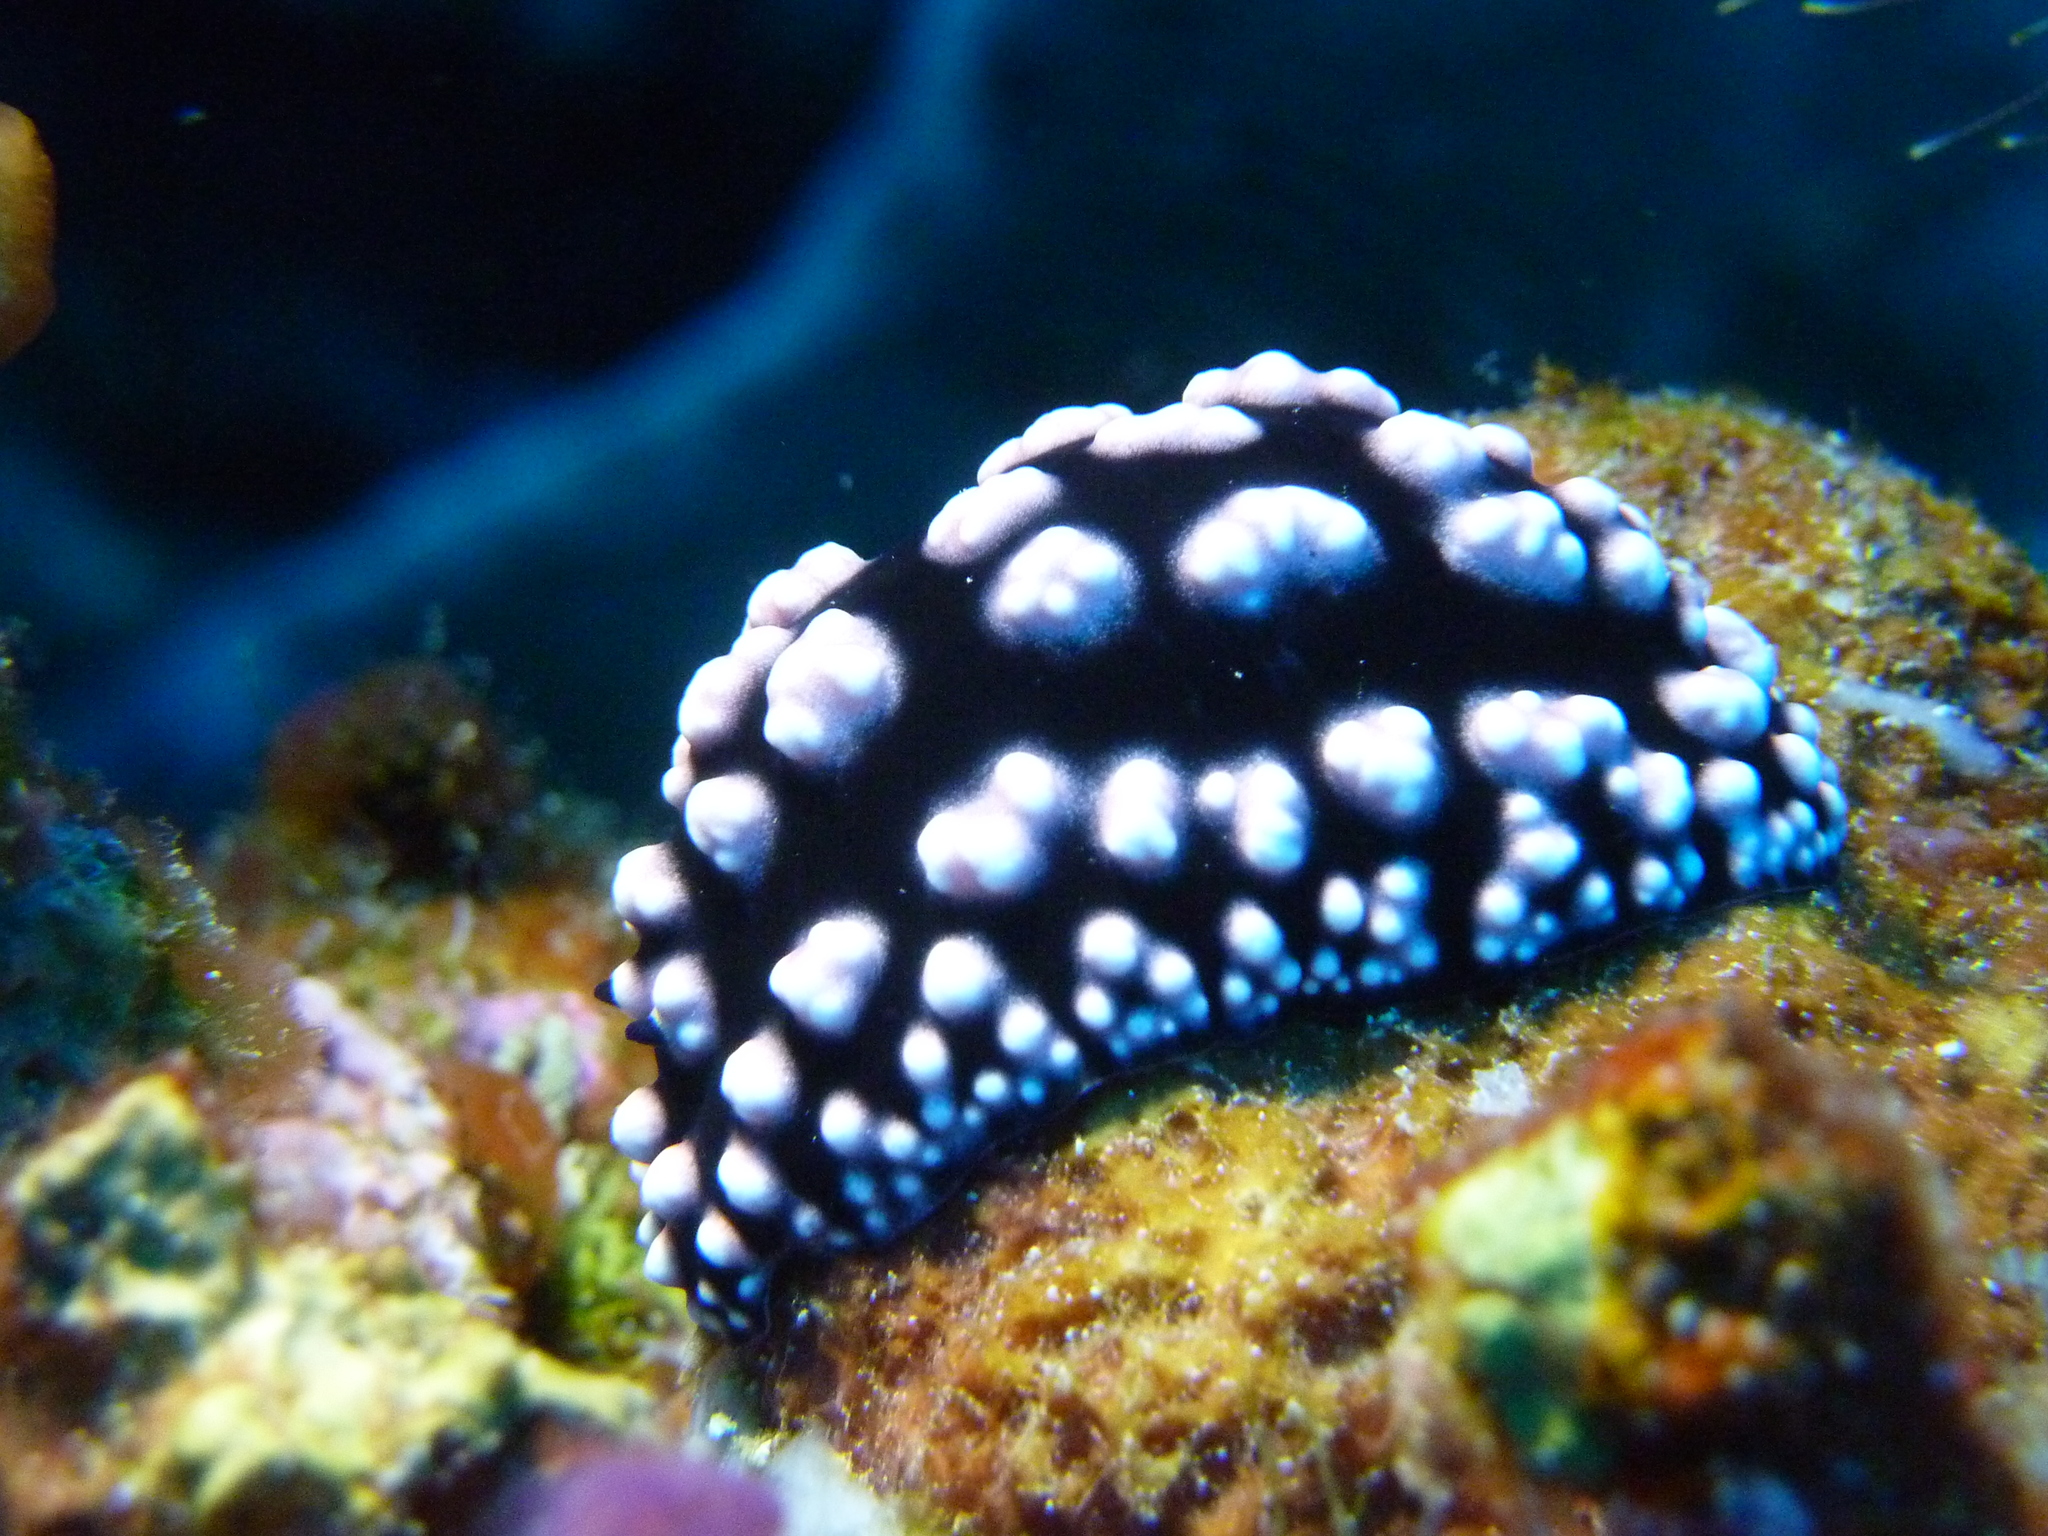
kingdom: Animalia
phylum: Mollusca
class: Gastropoda
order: Nudibranchia
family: Phyllidiidae
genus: Phyllidiella
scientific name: Phyllidiella pustulosa
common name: Pustular phyllidia
